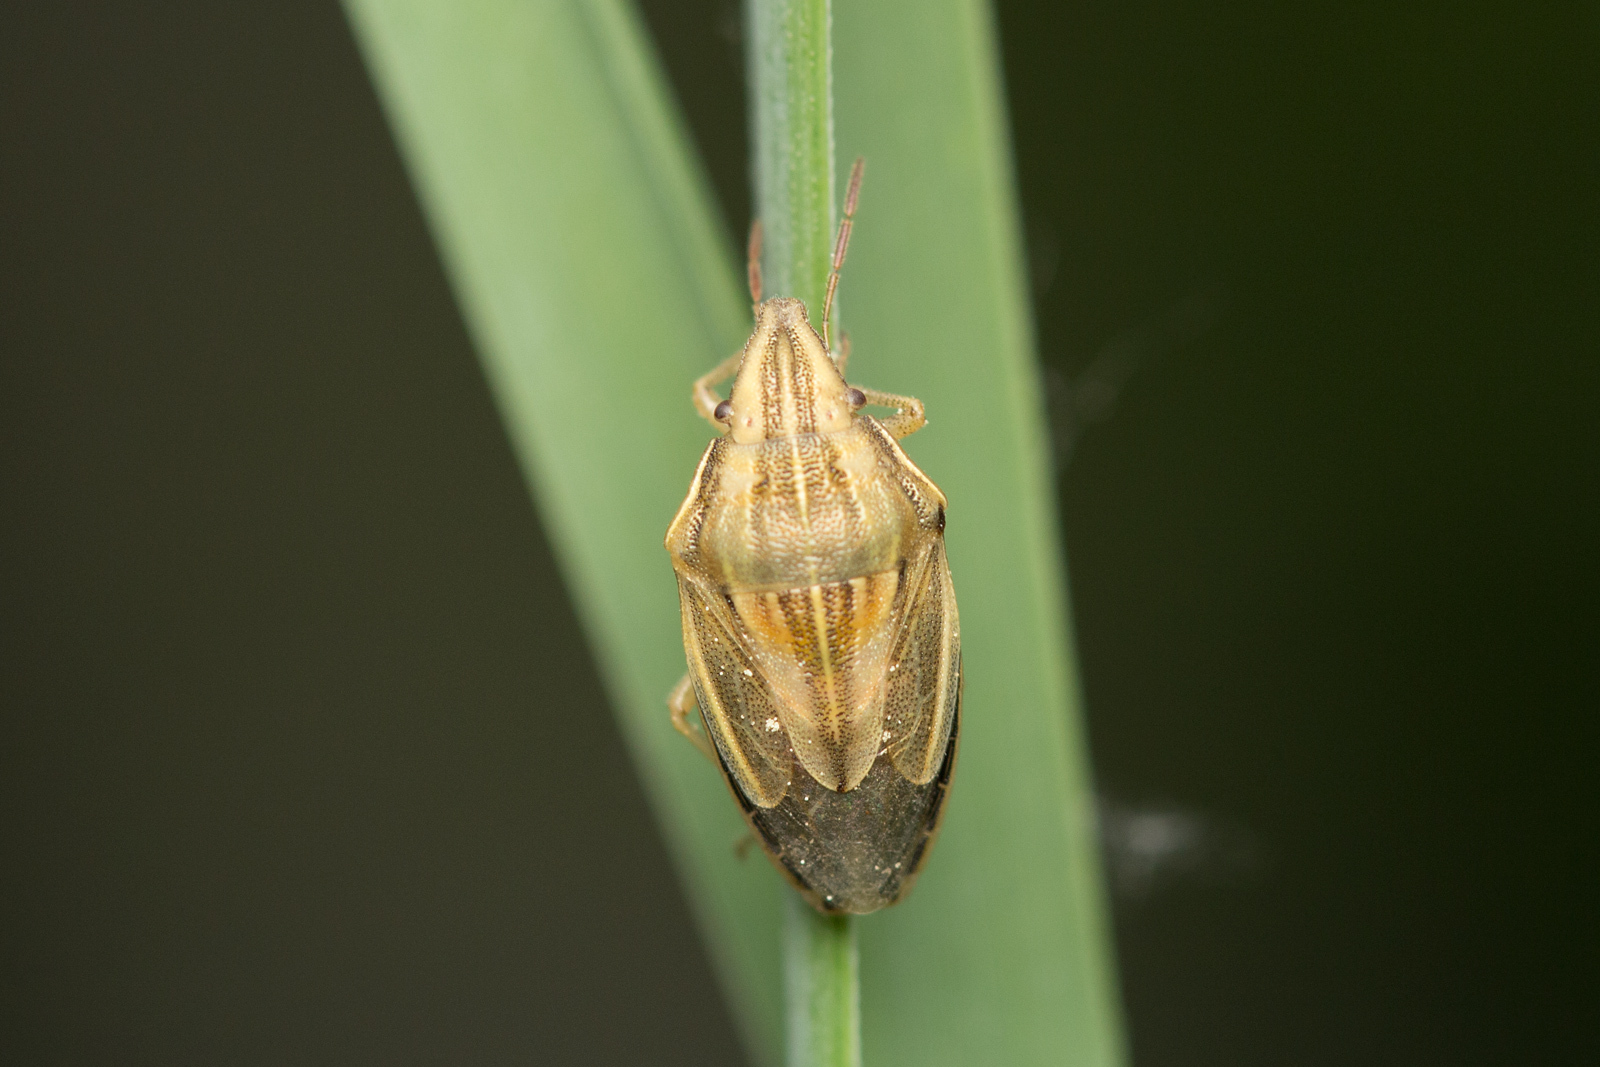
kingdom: Animalia
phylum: Arthropoda
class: Insecta
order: Hemiptera
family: Pentatomidae
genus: Aelia
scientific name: Aelia acuminata
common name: Bishop's mitre
